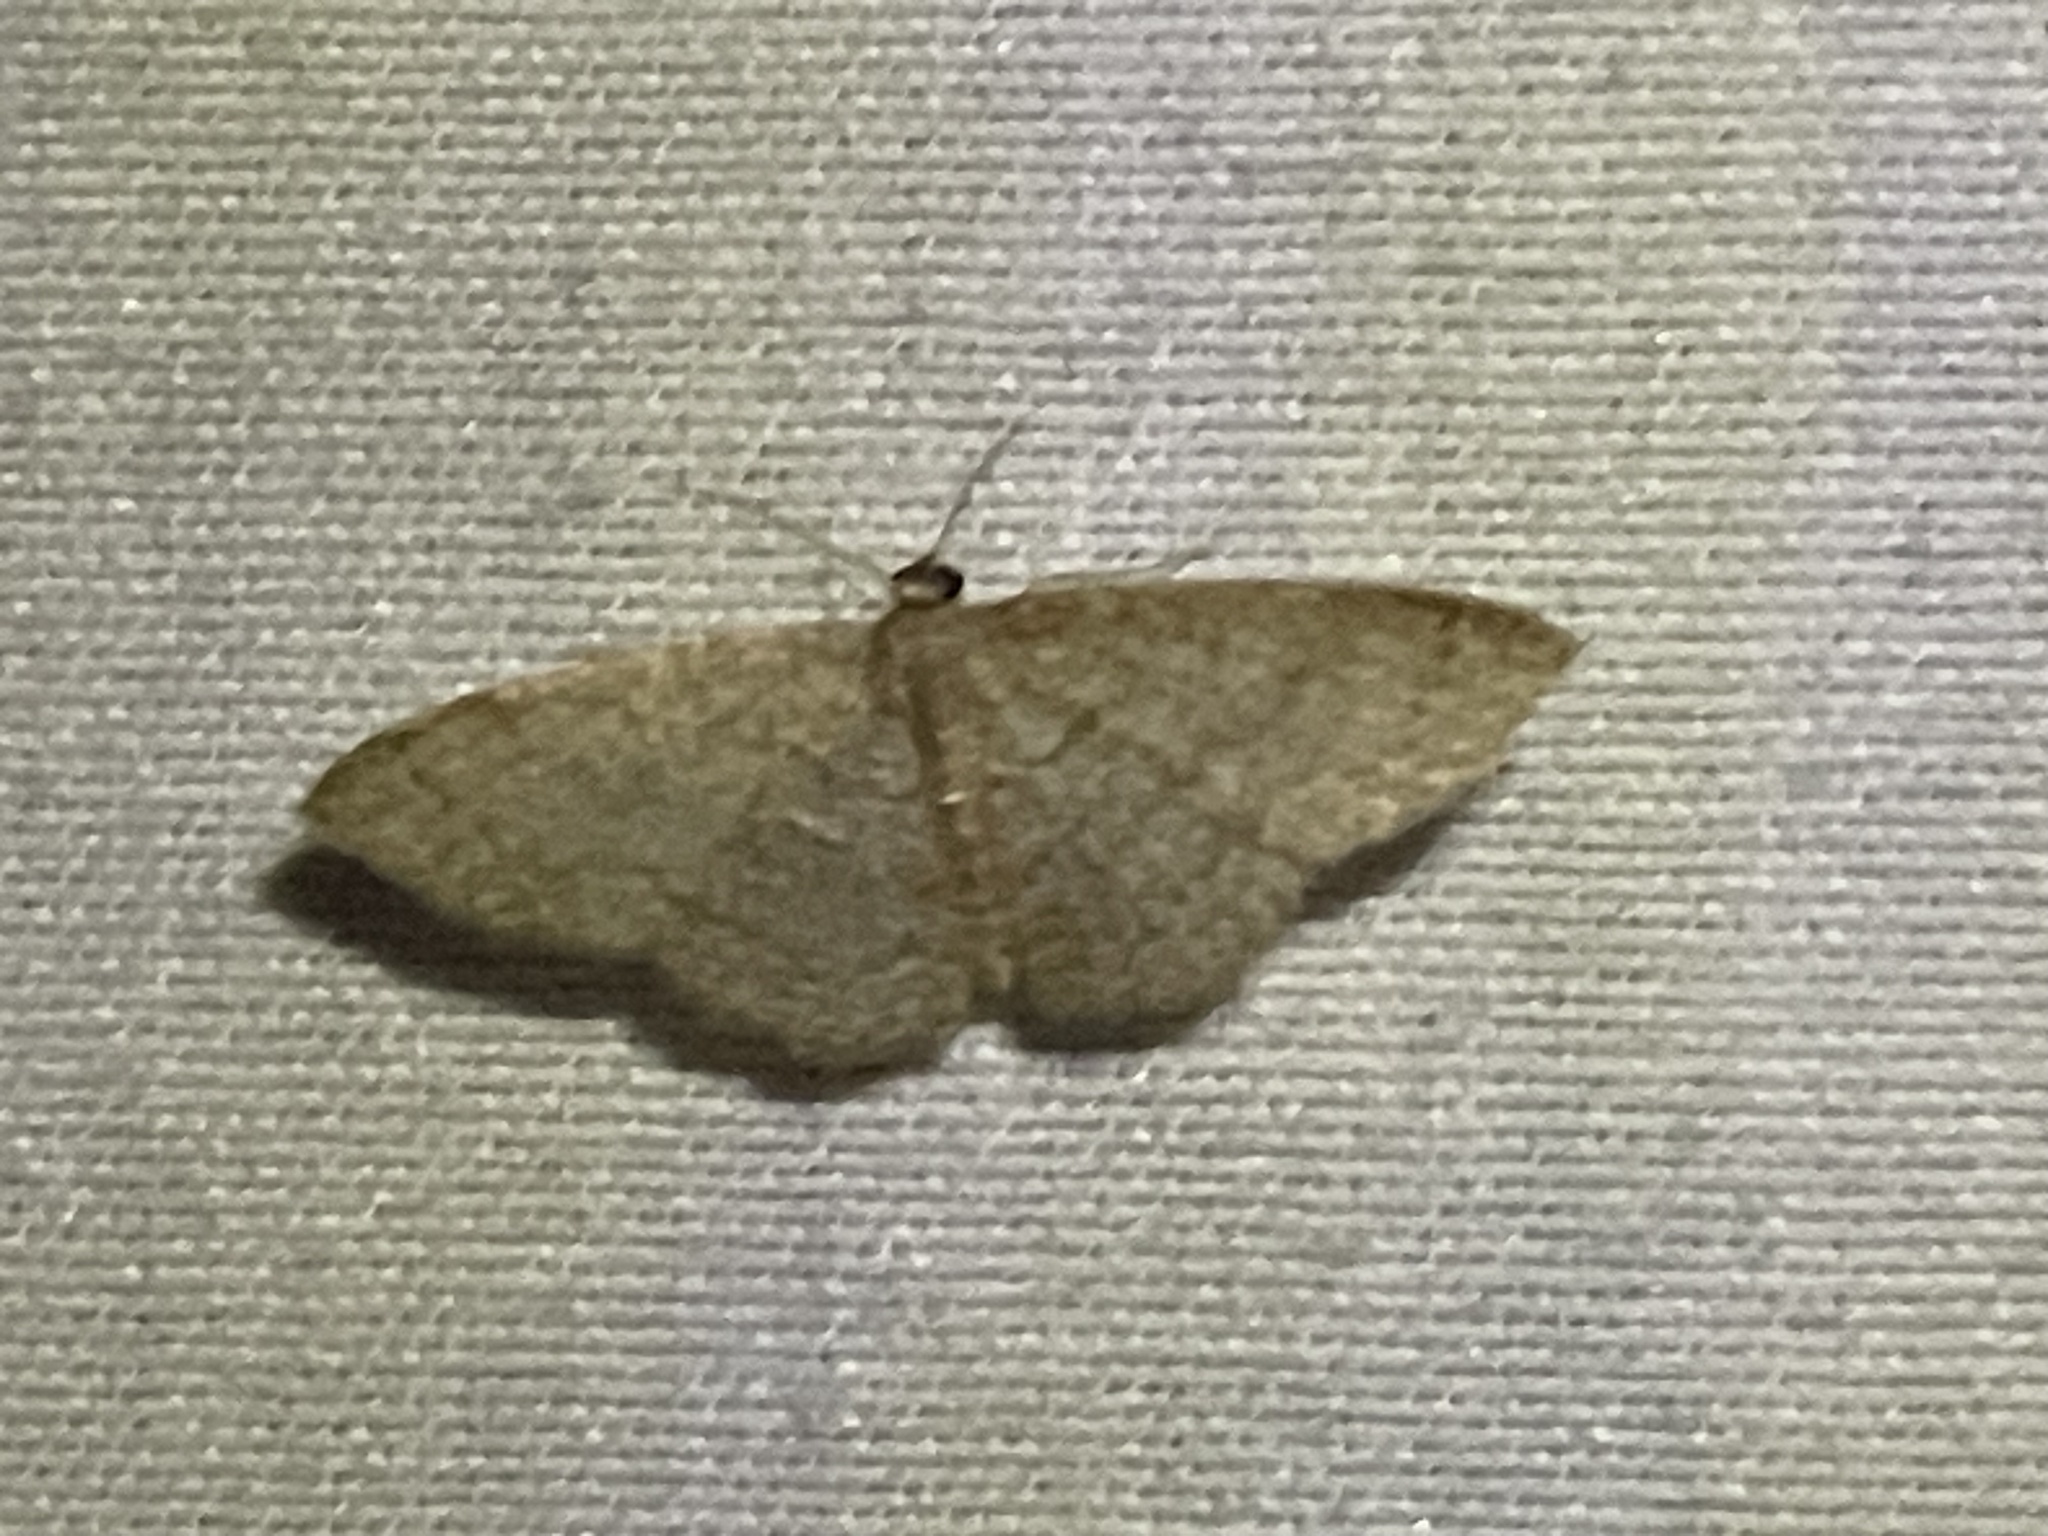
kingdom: Animalia
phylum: Arthropoda
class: Insecta
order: Lepidoptera
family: Geometridae
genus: Pleuroprucha
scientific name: Pleuroprucha insulsaria
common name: Common tan wave
